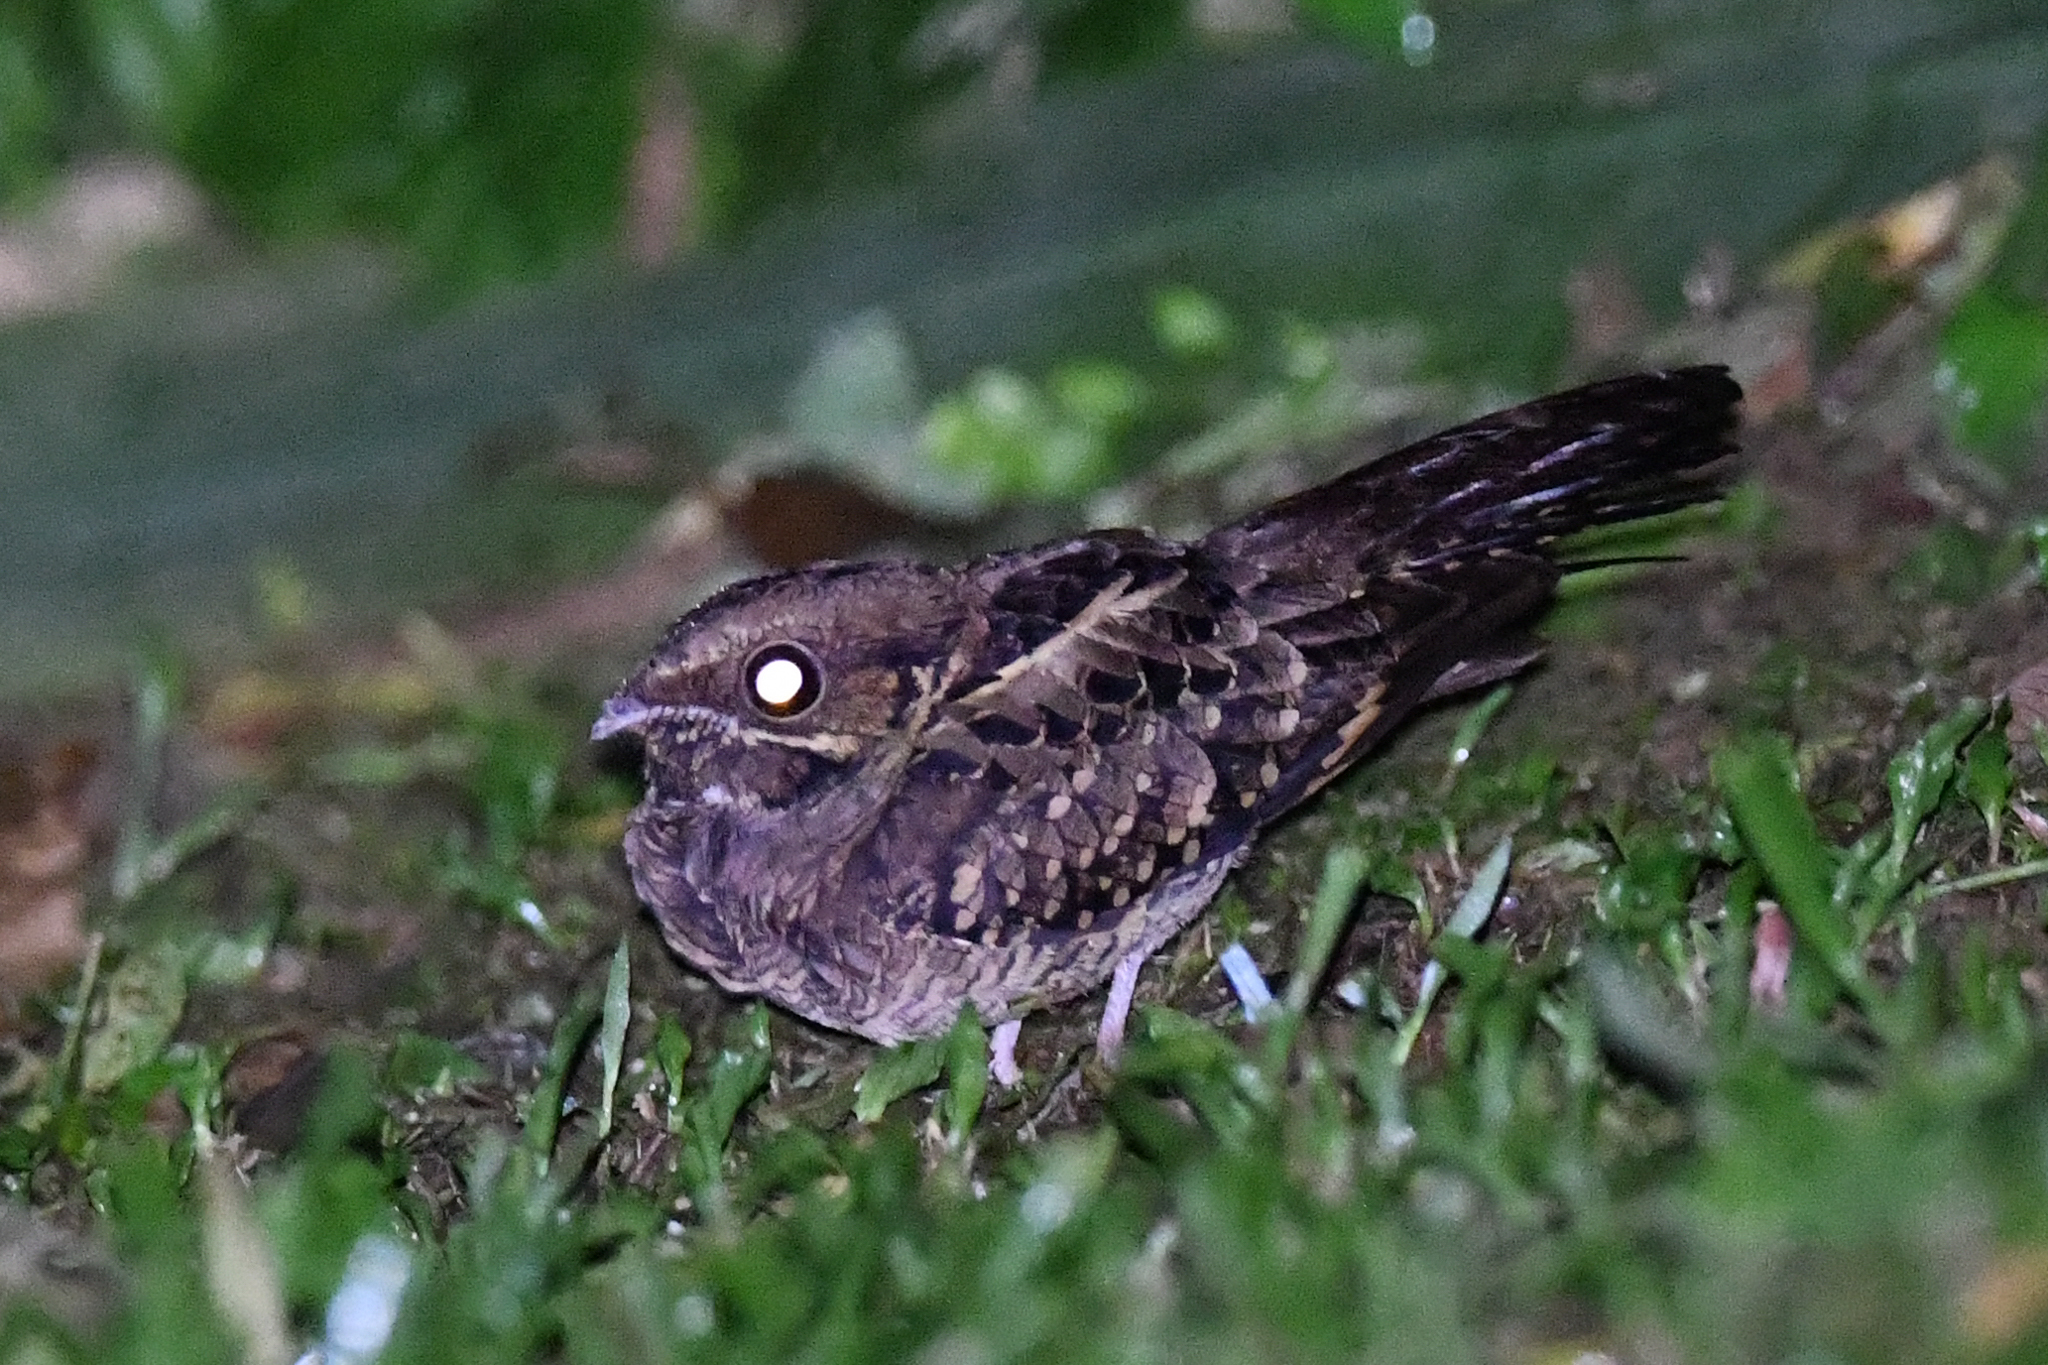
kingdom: Animalia
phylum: Chordata
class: Aves
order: Caprimulgiformes
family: Caprimulgidae
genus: Nyctidromus
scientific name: Nyctidromus albicollis
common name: Pauraque
